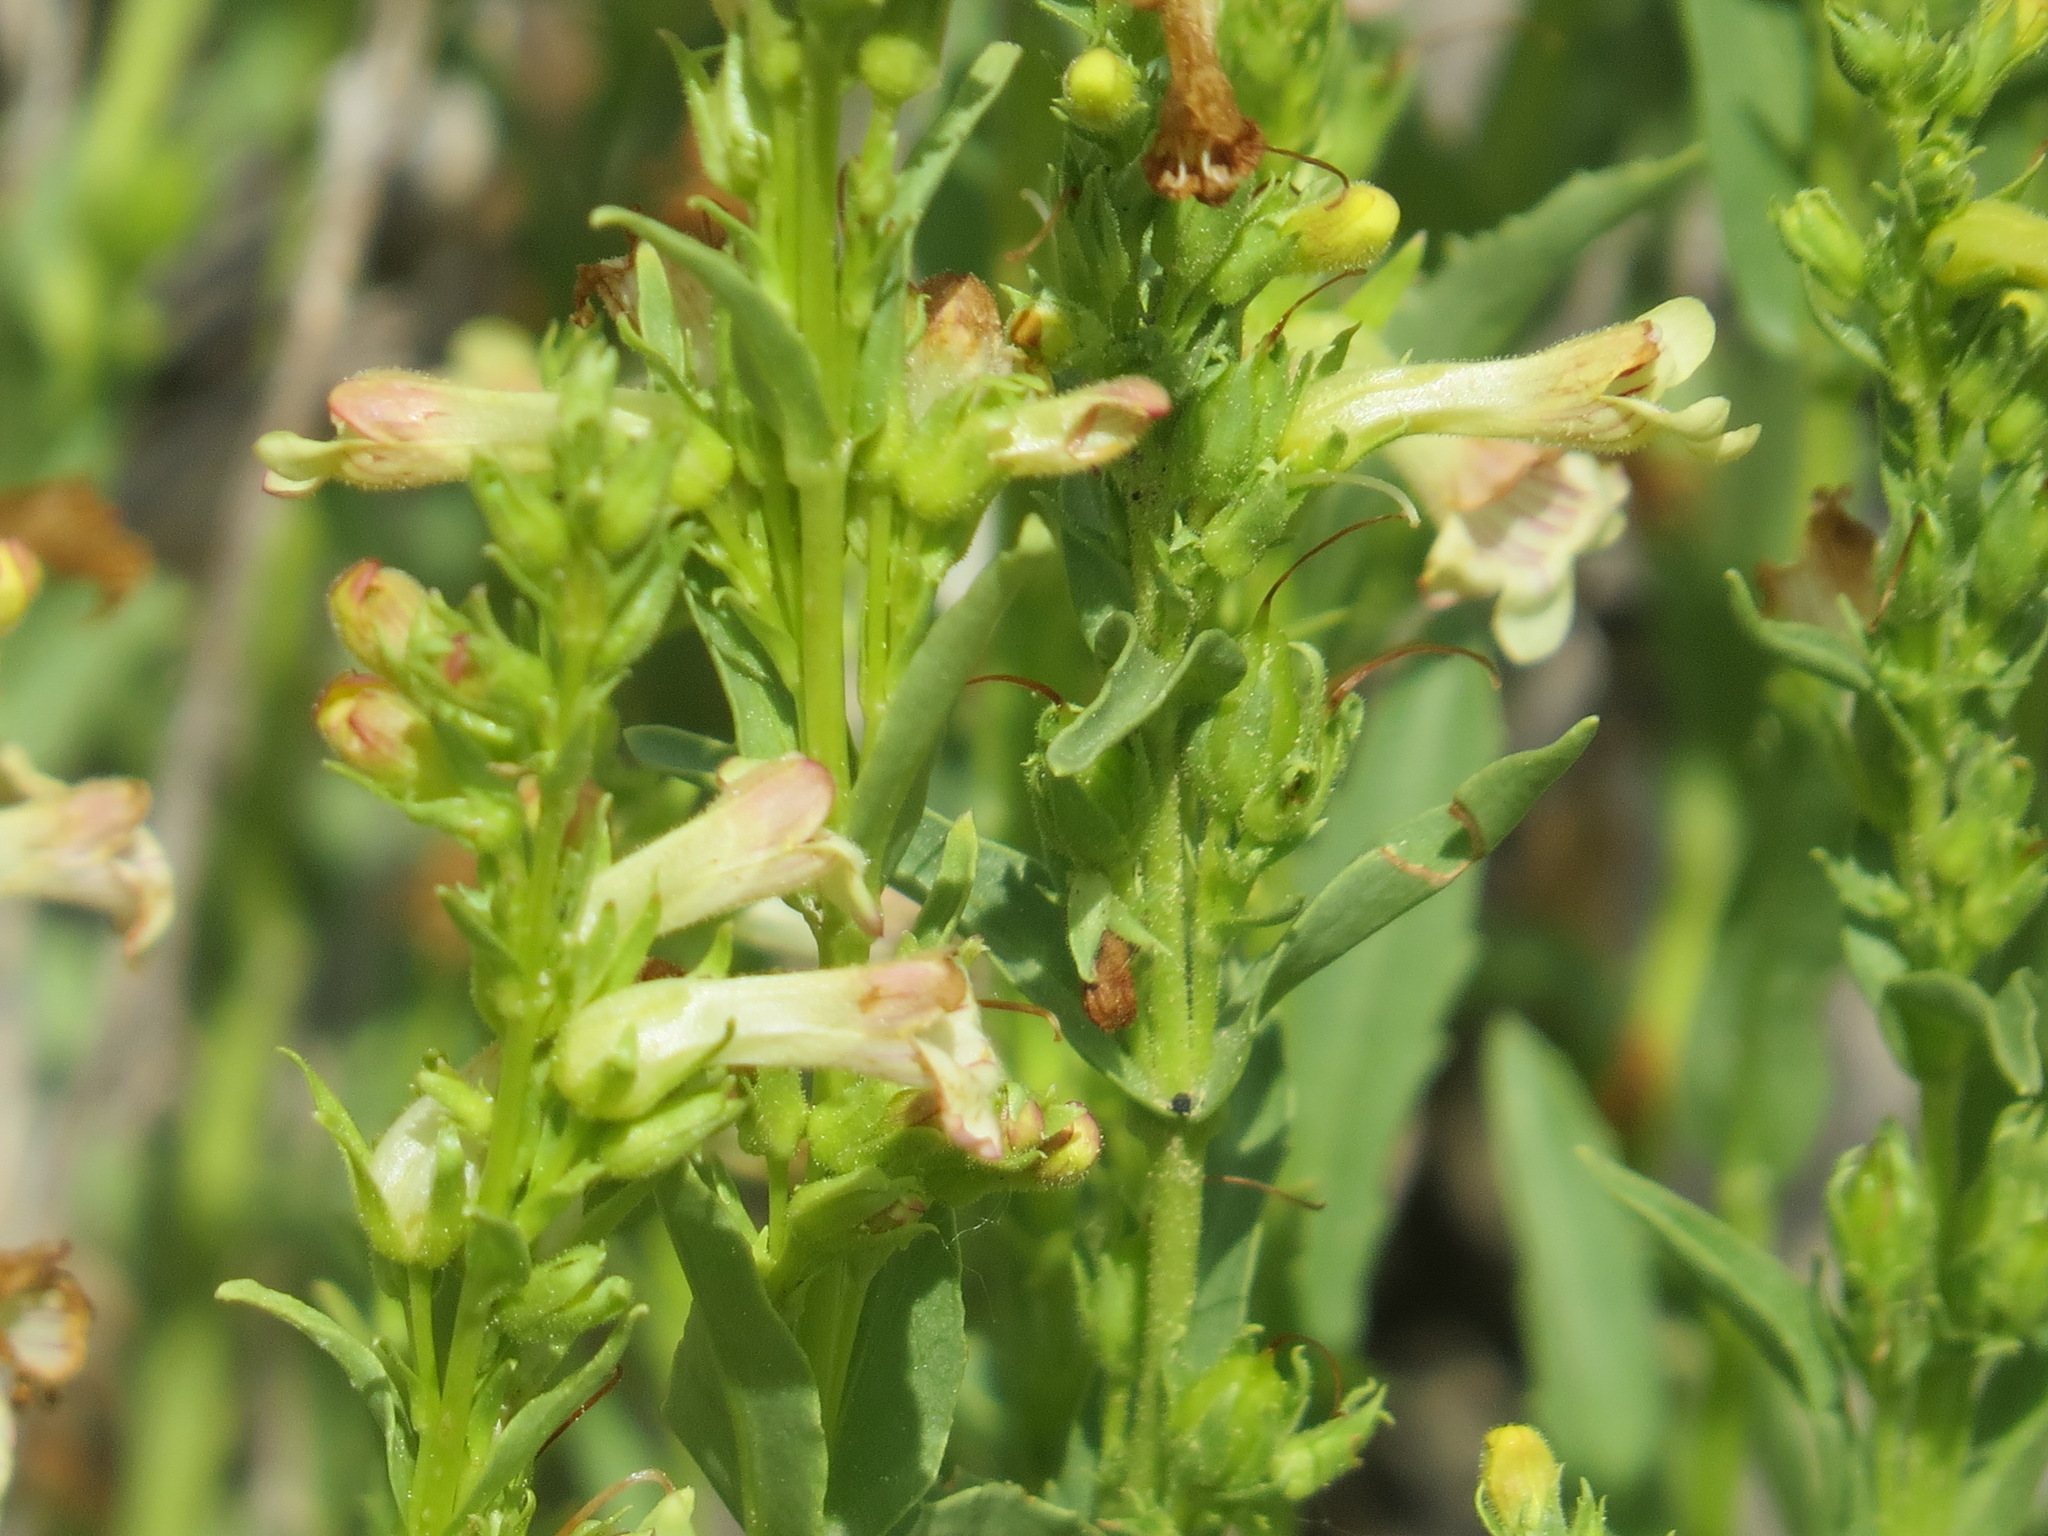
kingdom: Plantae
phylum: Tracheophyta
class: Magnoliopsida
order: Lamiales
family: Plantaginaceae
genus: Penstemon
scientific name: Penstemon deustus
